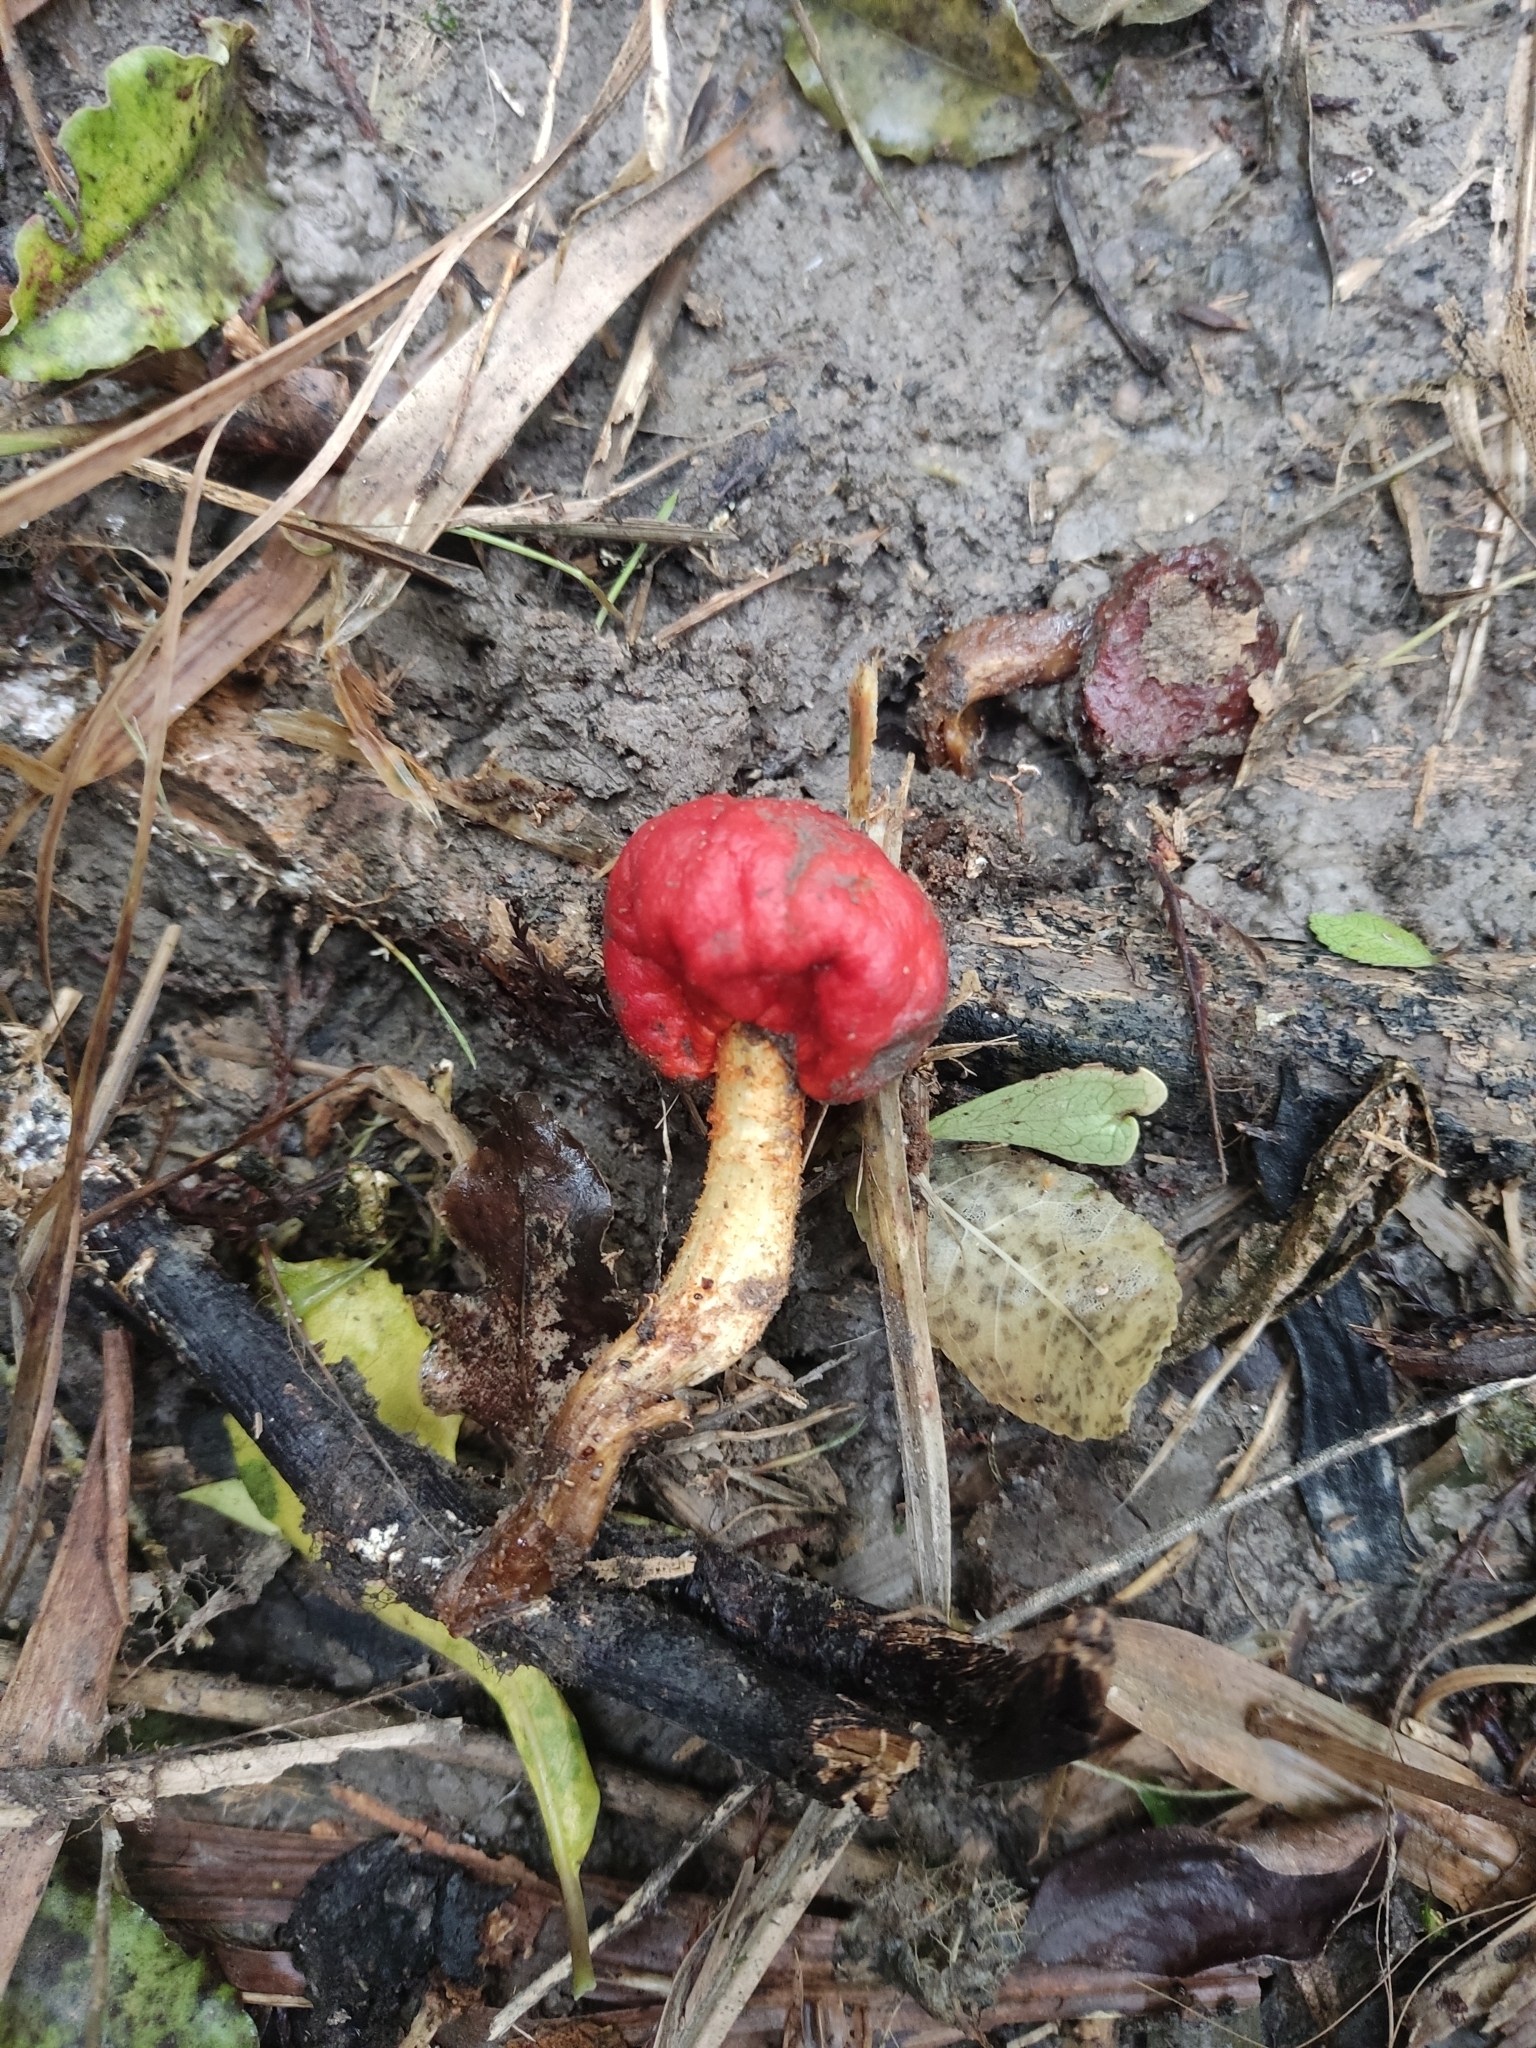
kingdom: Fungi
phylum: Basidiomycota
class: Agaricomycetes
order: Agaricales
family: Strophariaceae
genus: Leratiomyces
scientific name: Leratiomyces erythrocephalus
